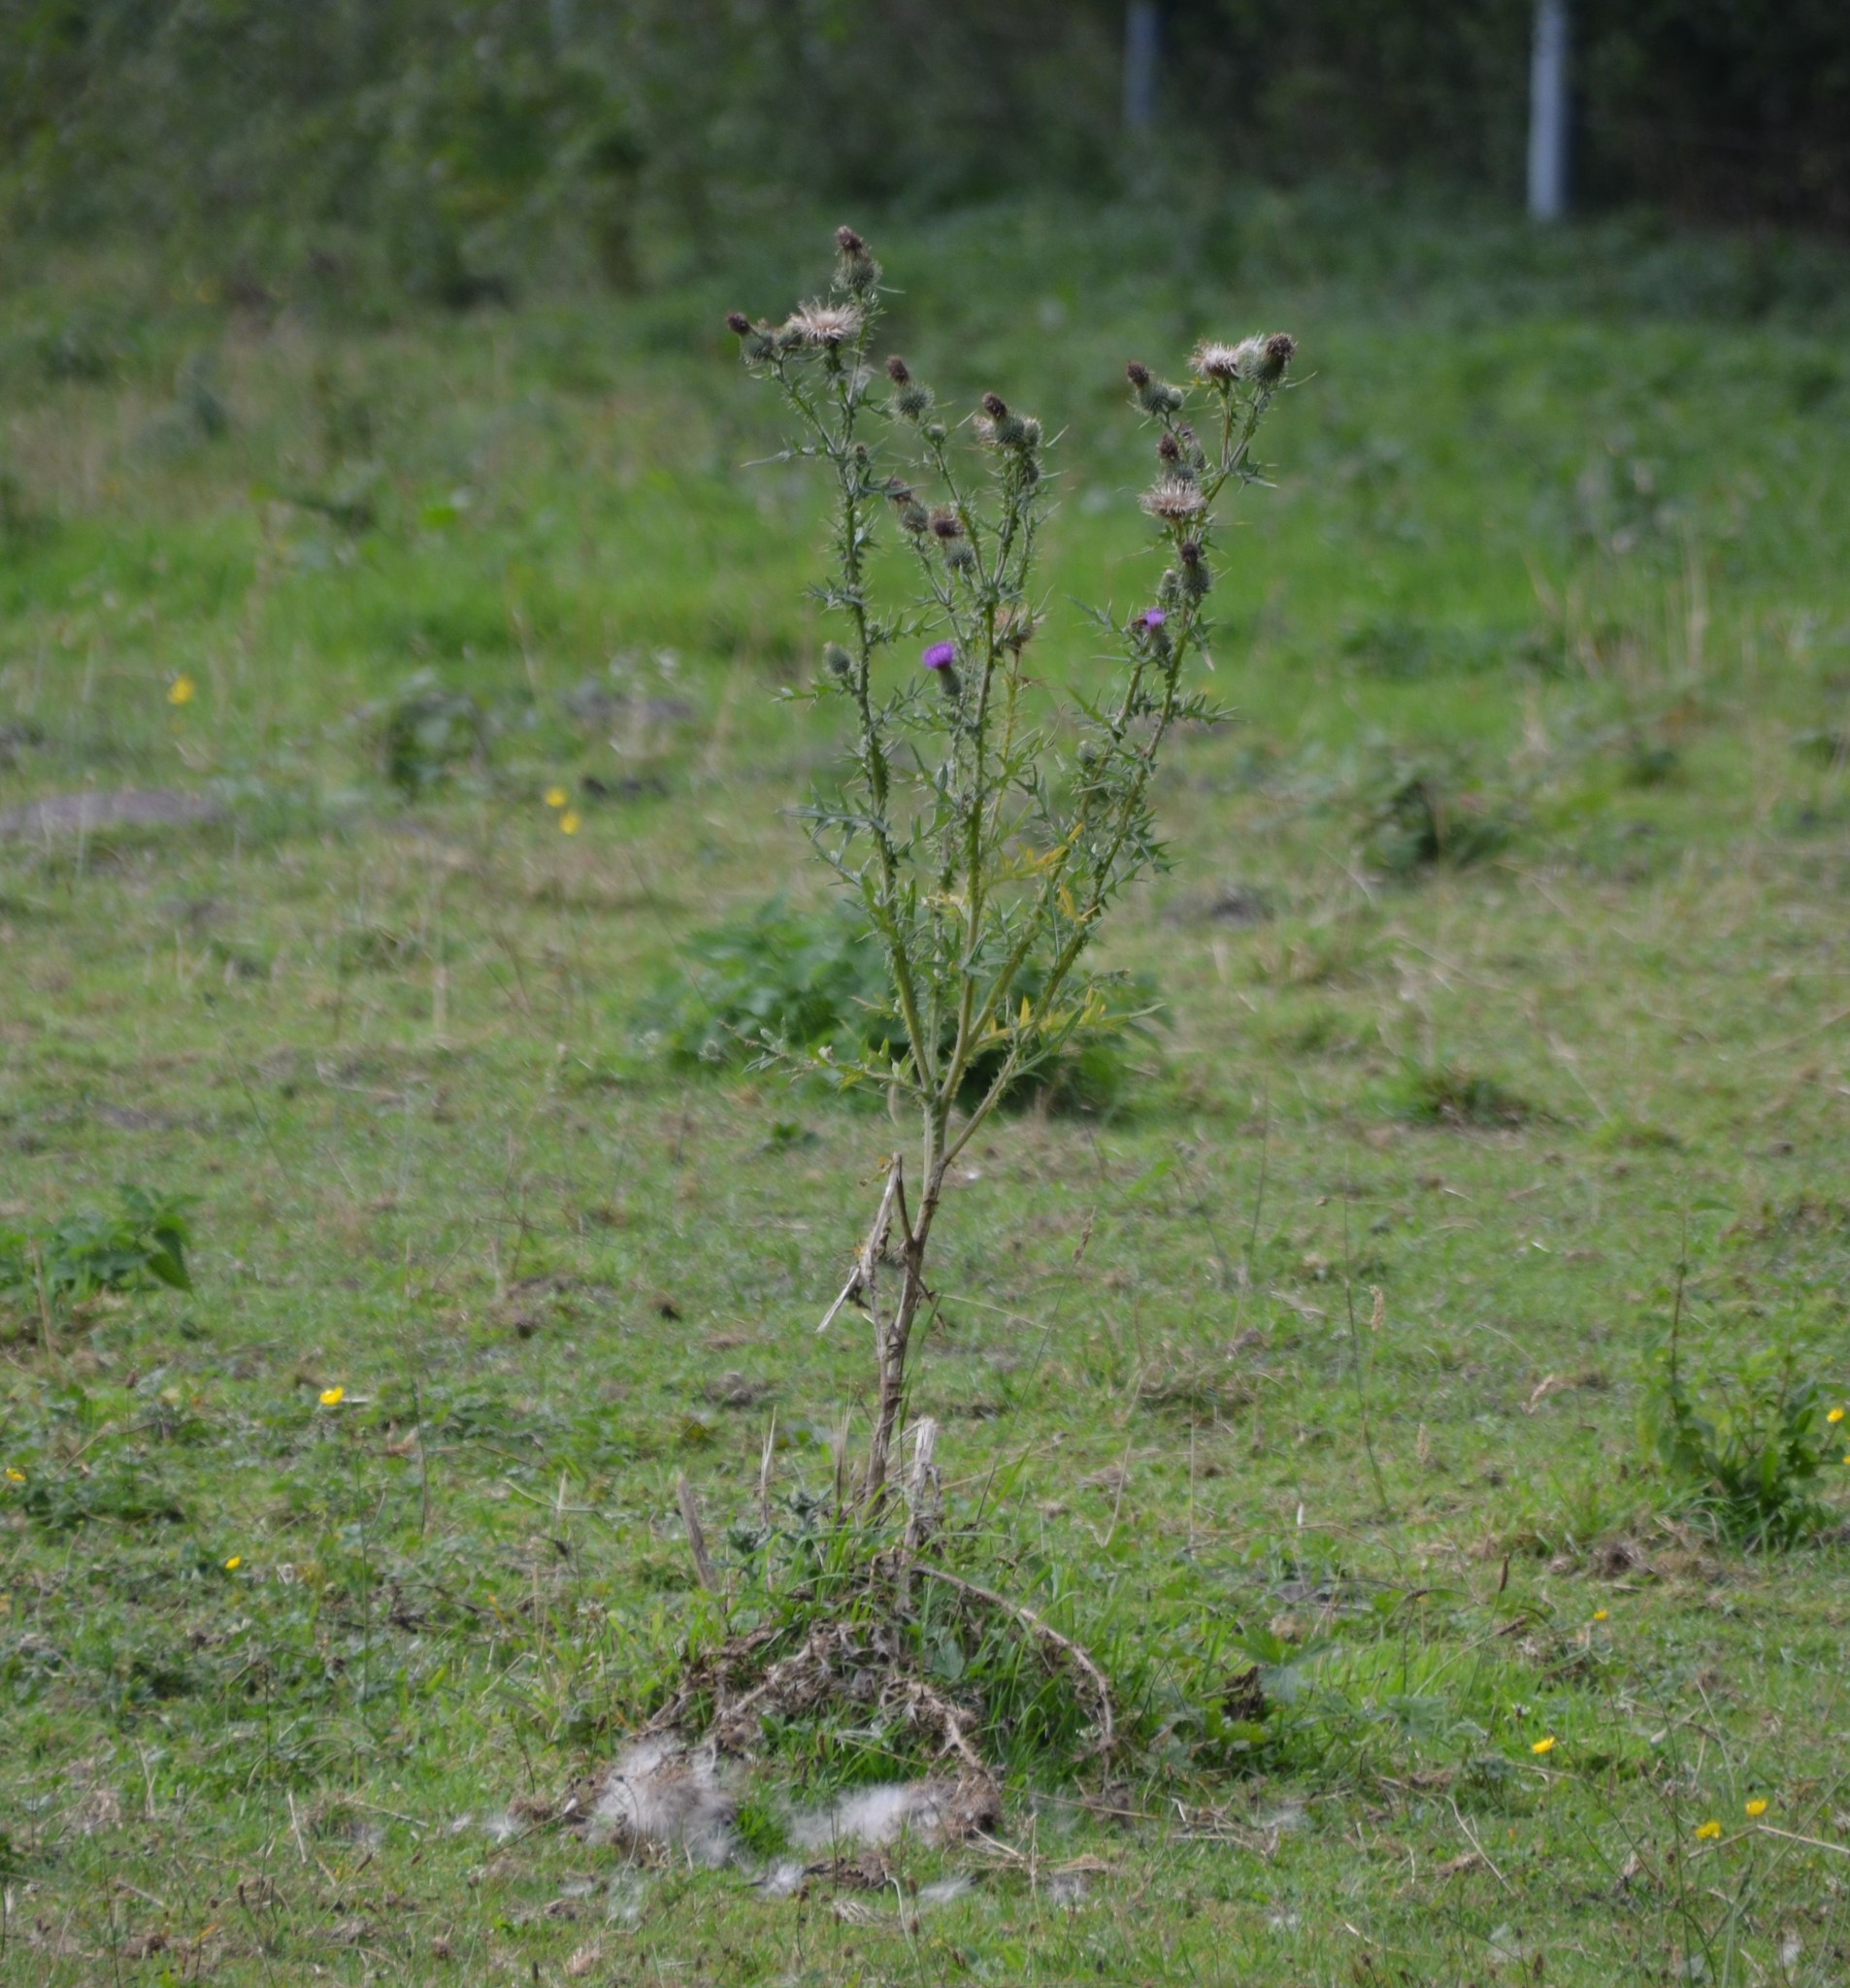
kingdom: Plantae
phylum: Tracheophyta
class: Magnoliopsida
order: Asterales
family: Asteraceae
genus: Cirsium
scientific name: Cirsium vulgare
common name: Bull thistle
